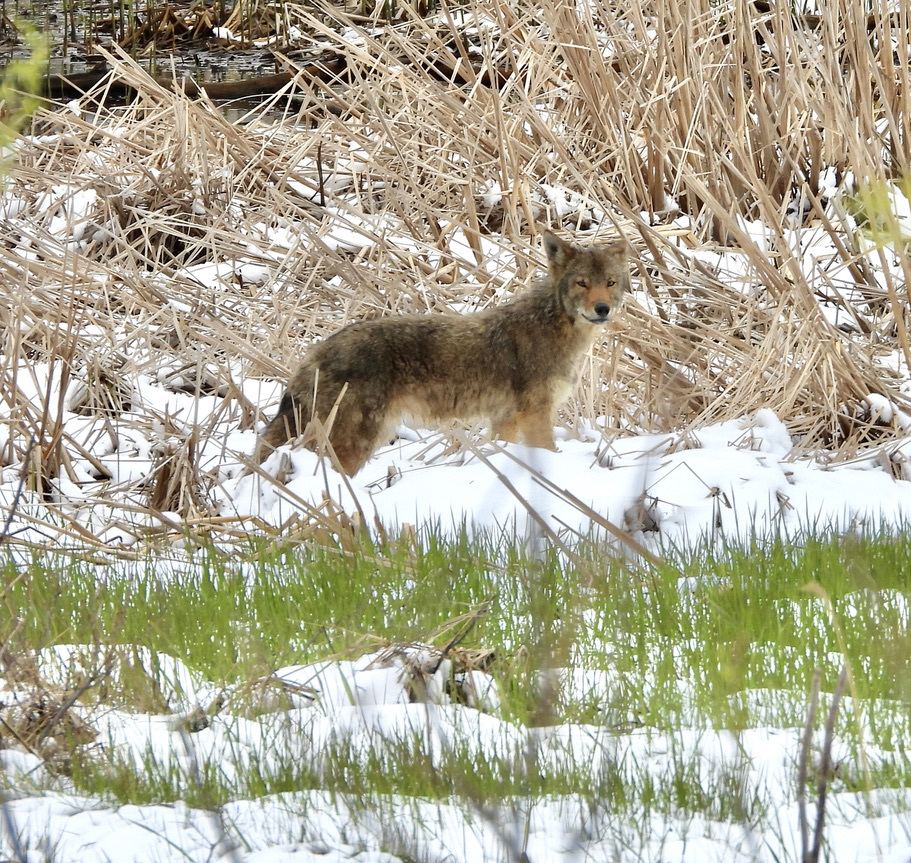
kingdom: Animalia
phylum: Chordata
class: Mammalia
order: Carnivora
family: Canidae
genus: Canis
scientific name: Canis latrans
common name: Coyote
